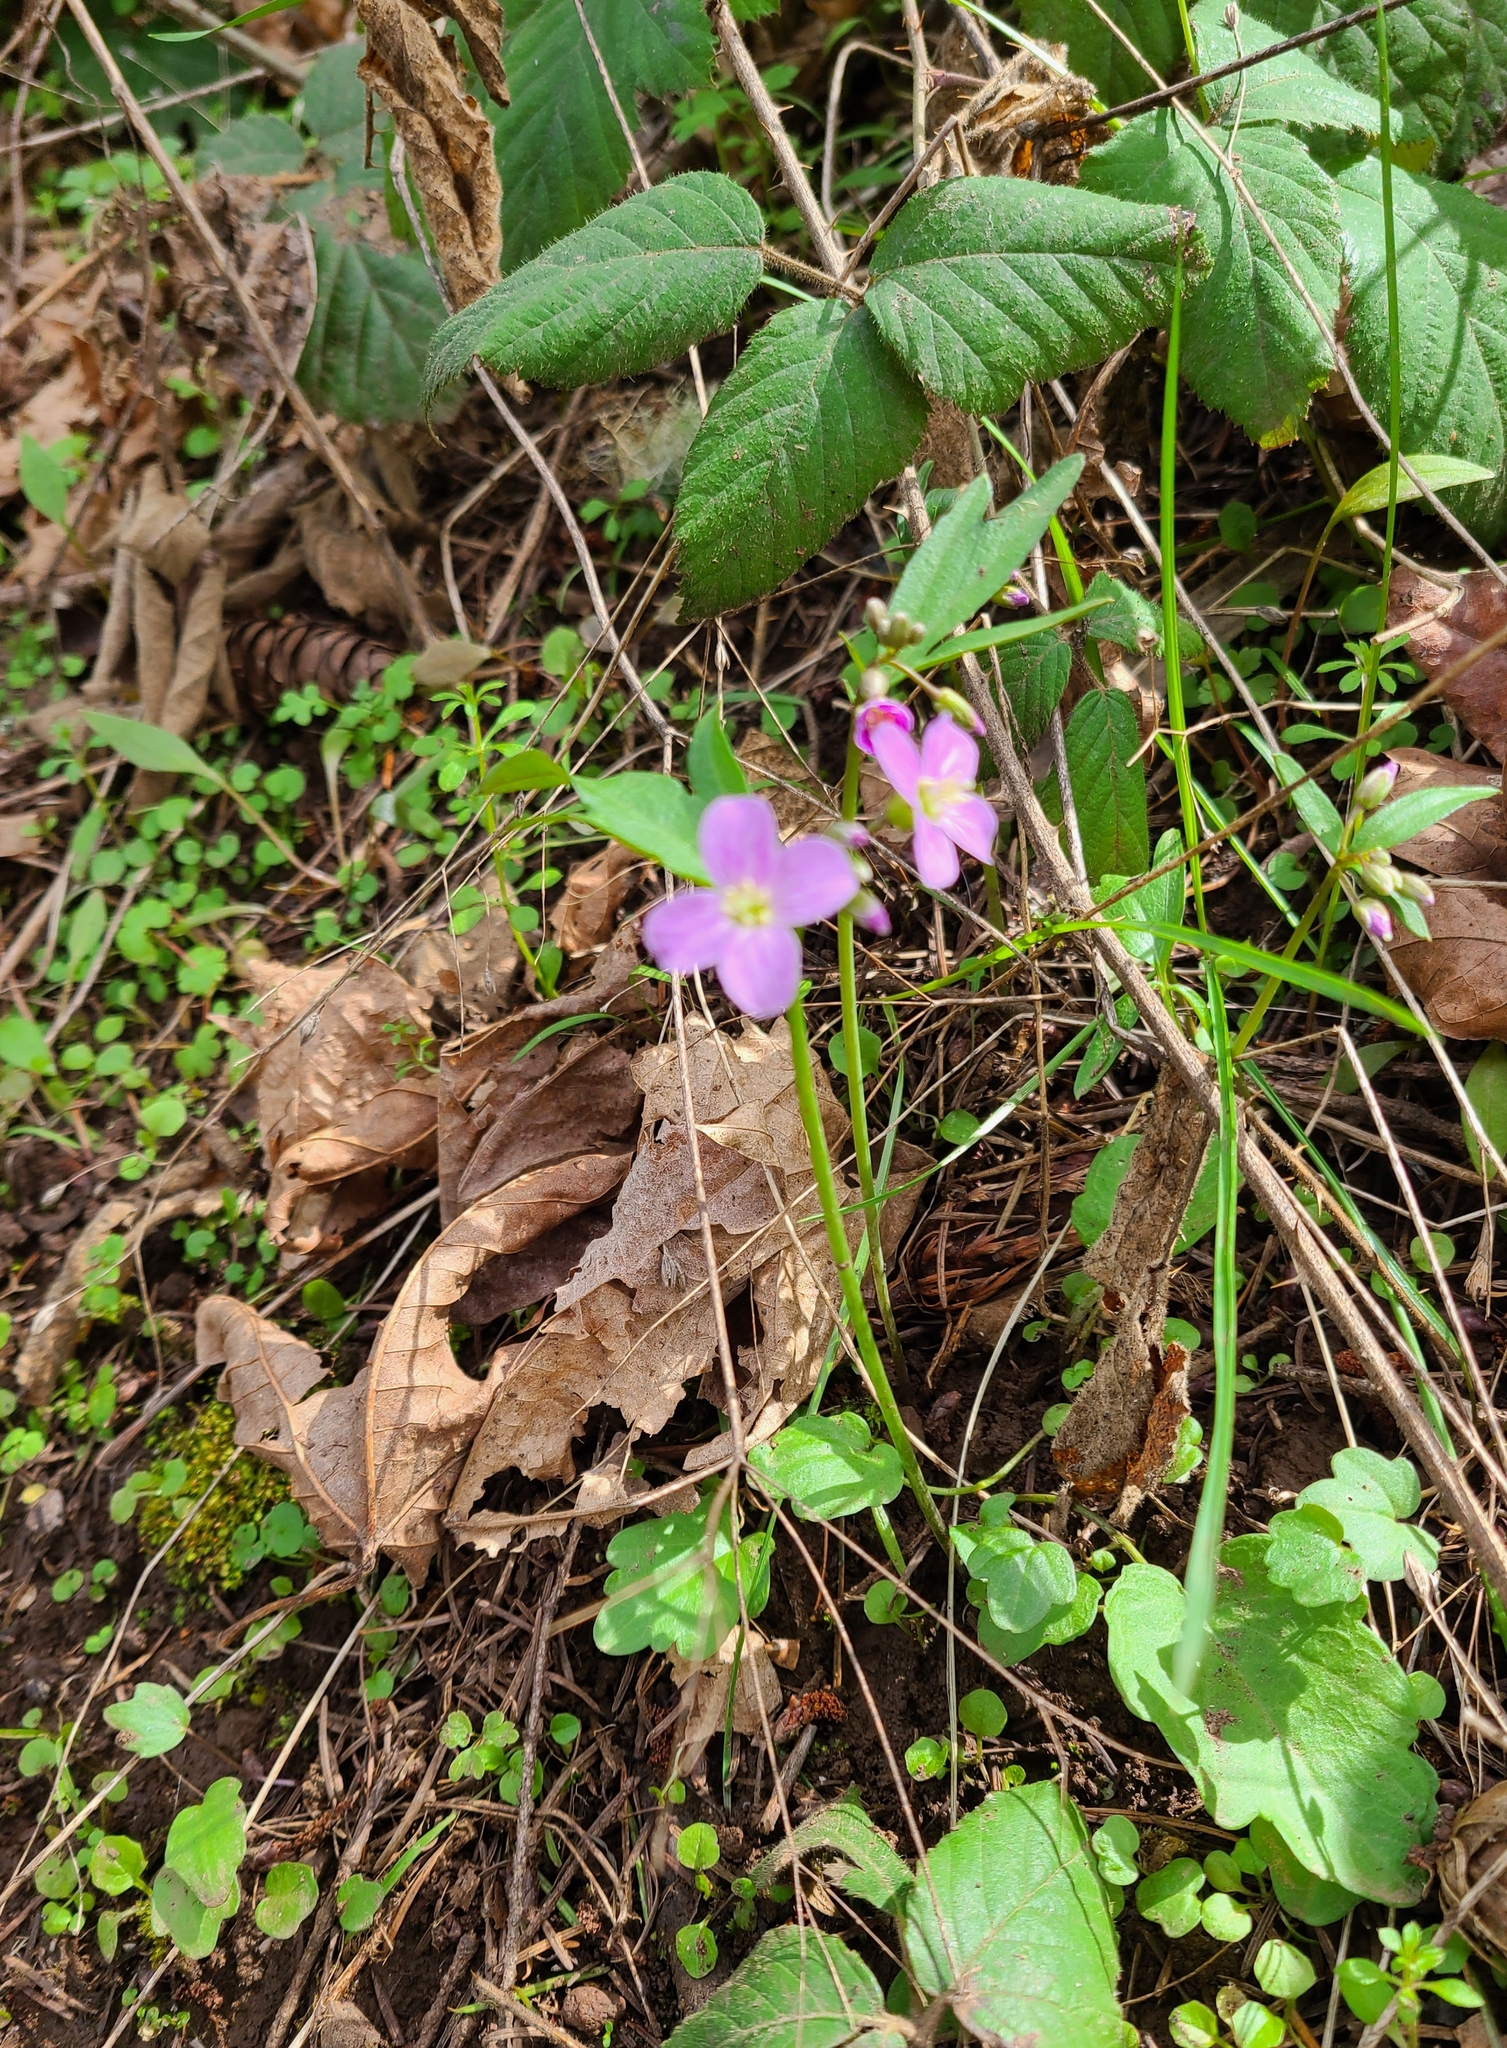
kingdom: Plantae
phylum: Tracheophyta
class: Magnoliopsida
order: Brassicales
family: Brassicaceae
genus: Cardamine
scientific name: Cardamine nuttallii
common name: Nuttall's toothwort
